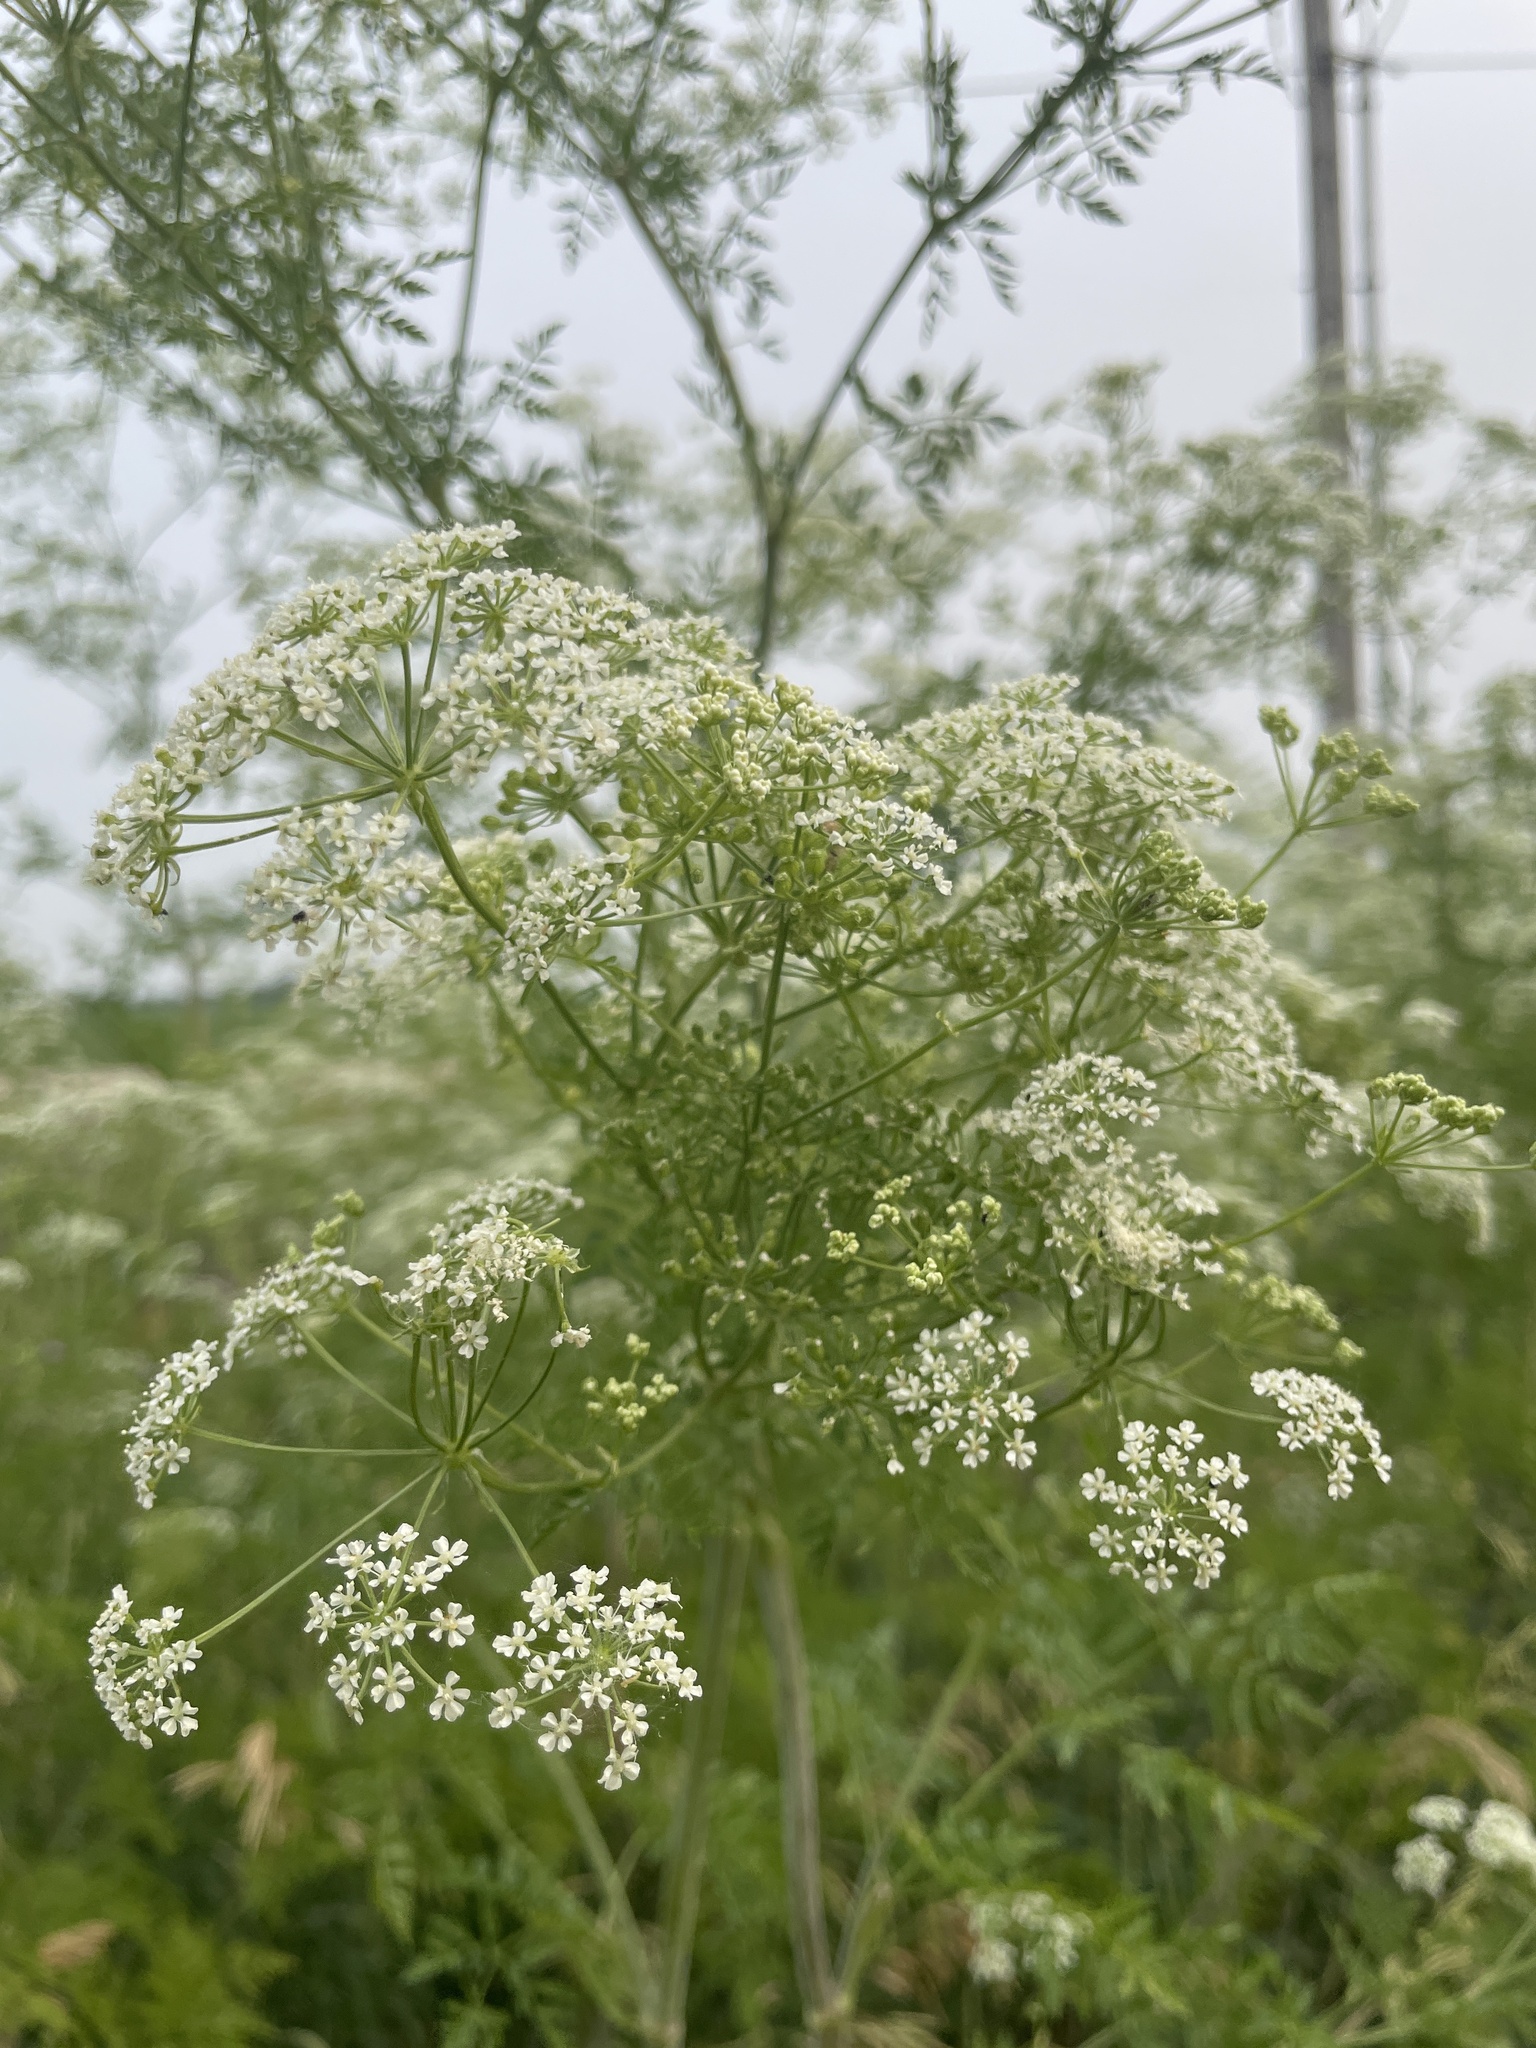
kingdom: Plantae
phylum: Tracheophyta
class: Magnoliopsida
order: Apiales
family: Apiaceae
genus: Conium
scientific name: Conium maculatum
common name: Hemlock
